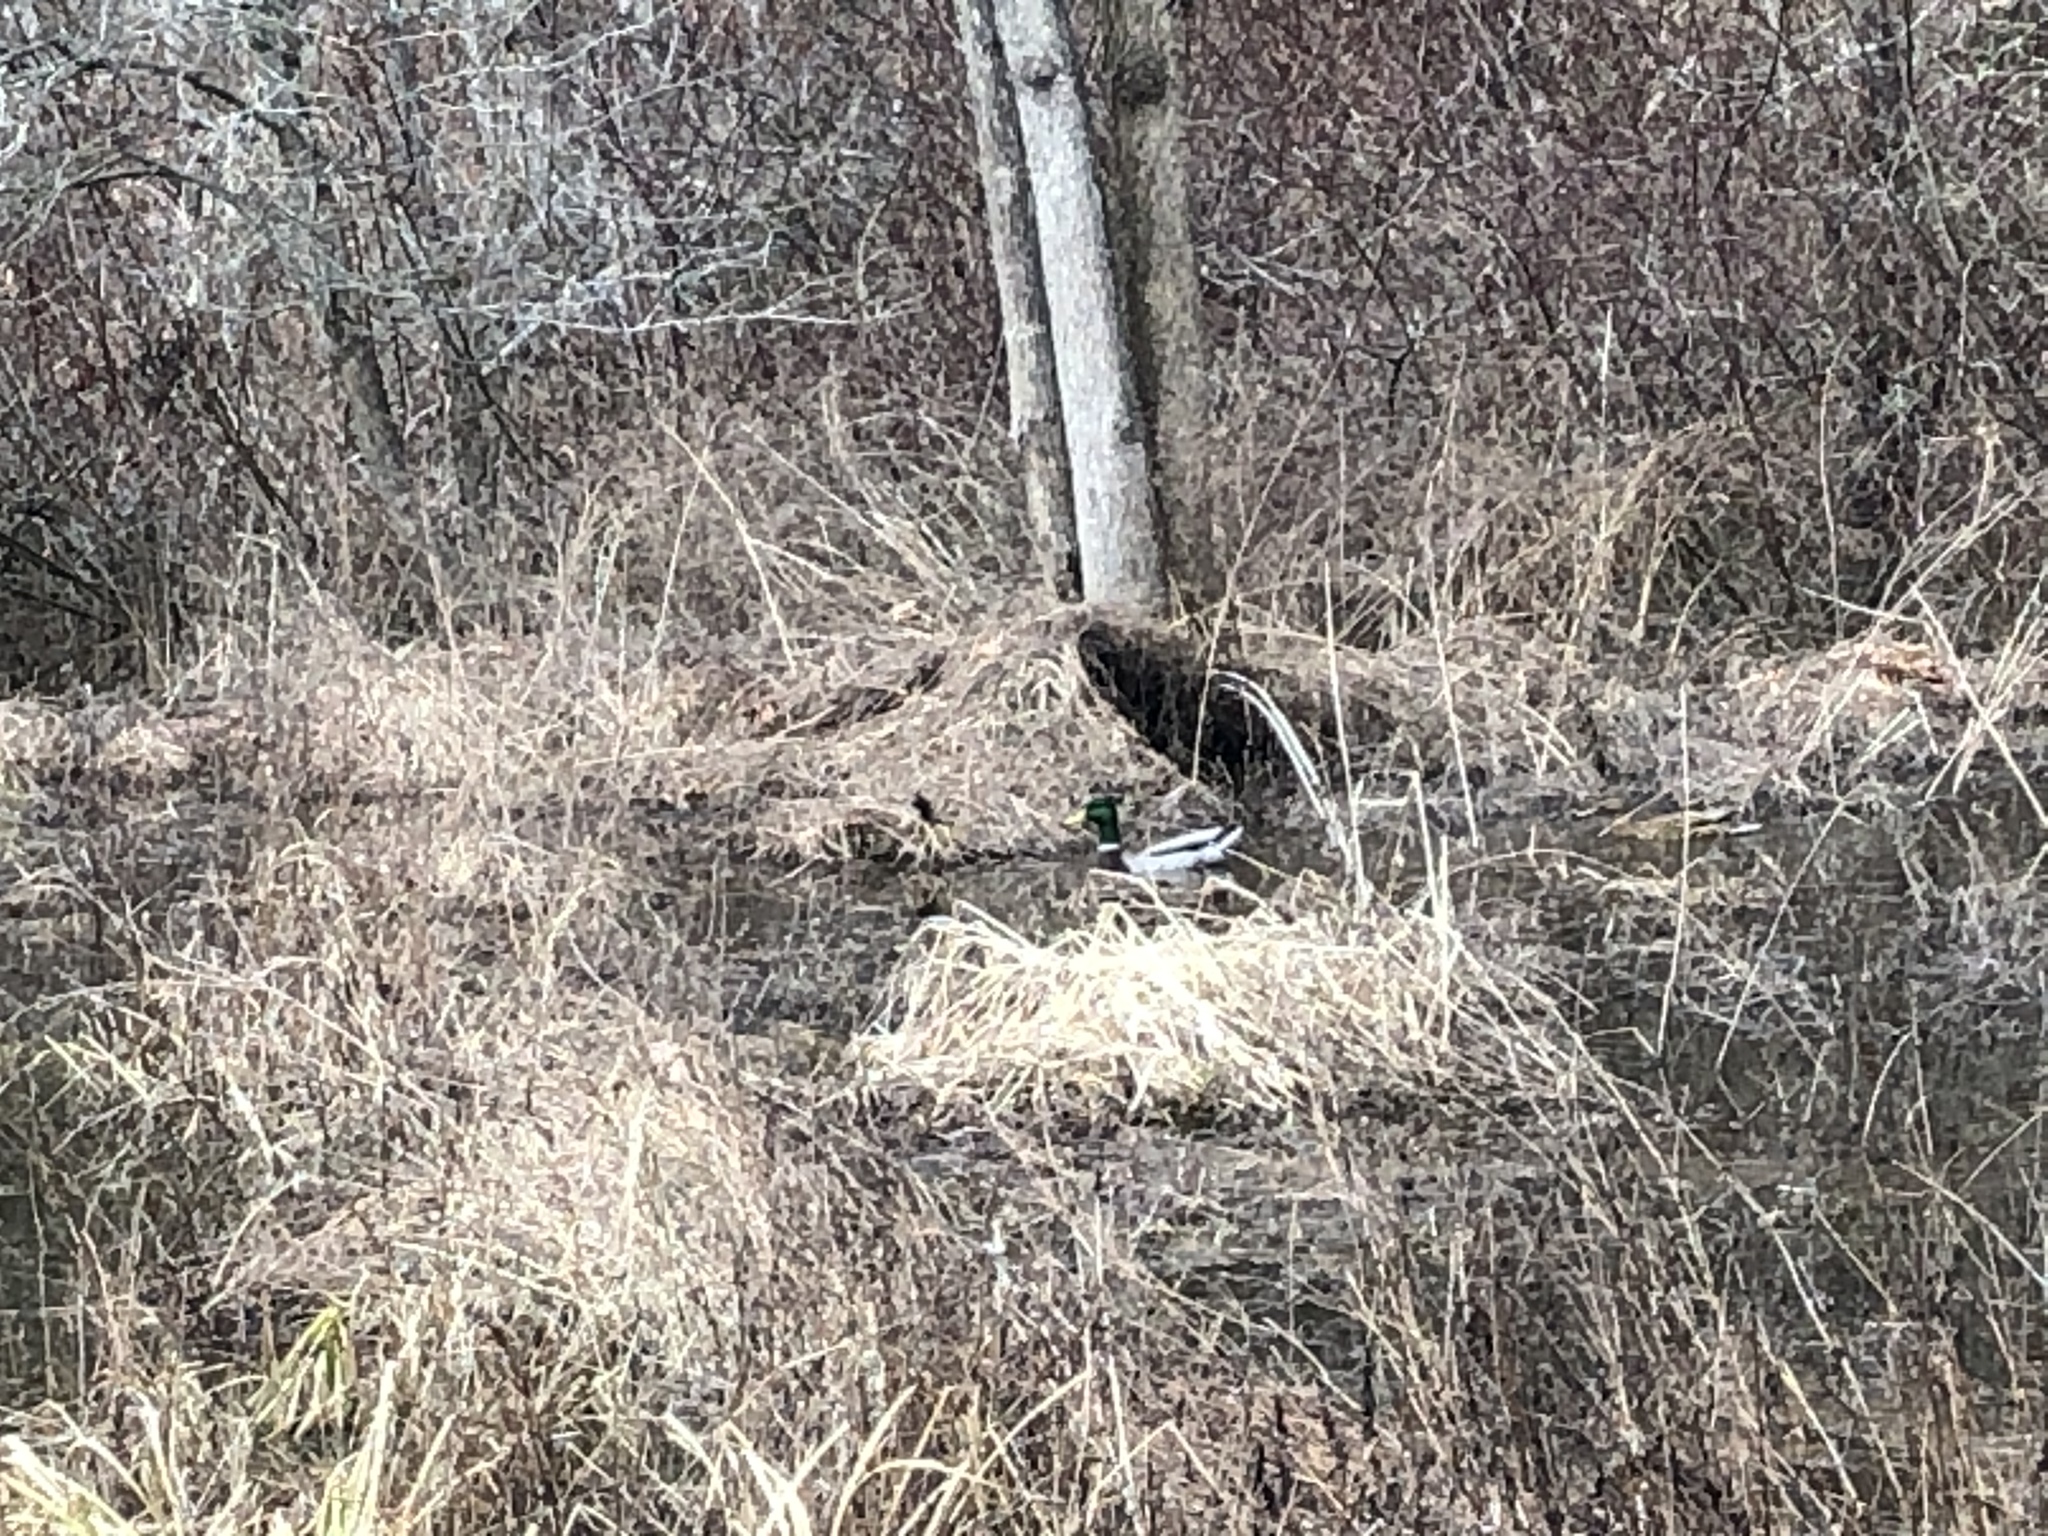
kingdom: Animalia
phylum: Chordata
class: Aves
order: Anseriformes
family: Anatidae
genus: Anas
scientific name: Anas platyrhynchos
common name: Mallard
